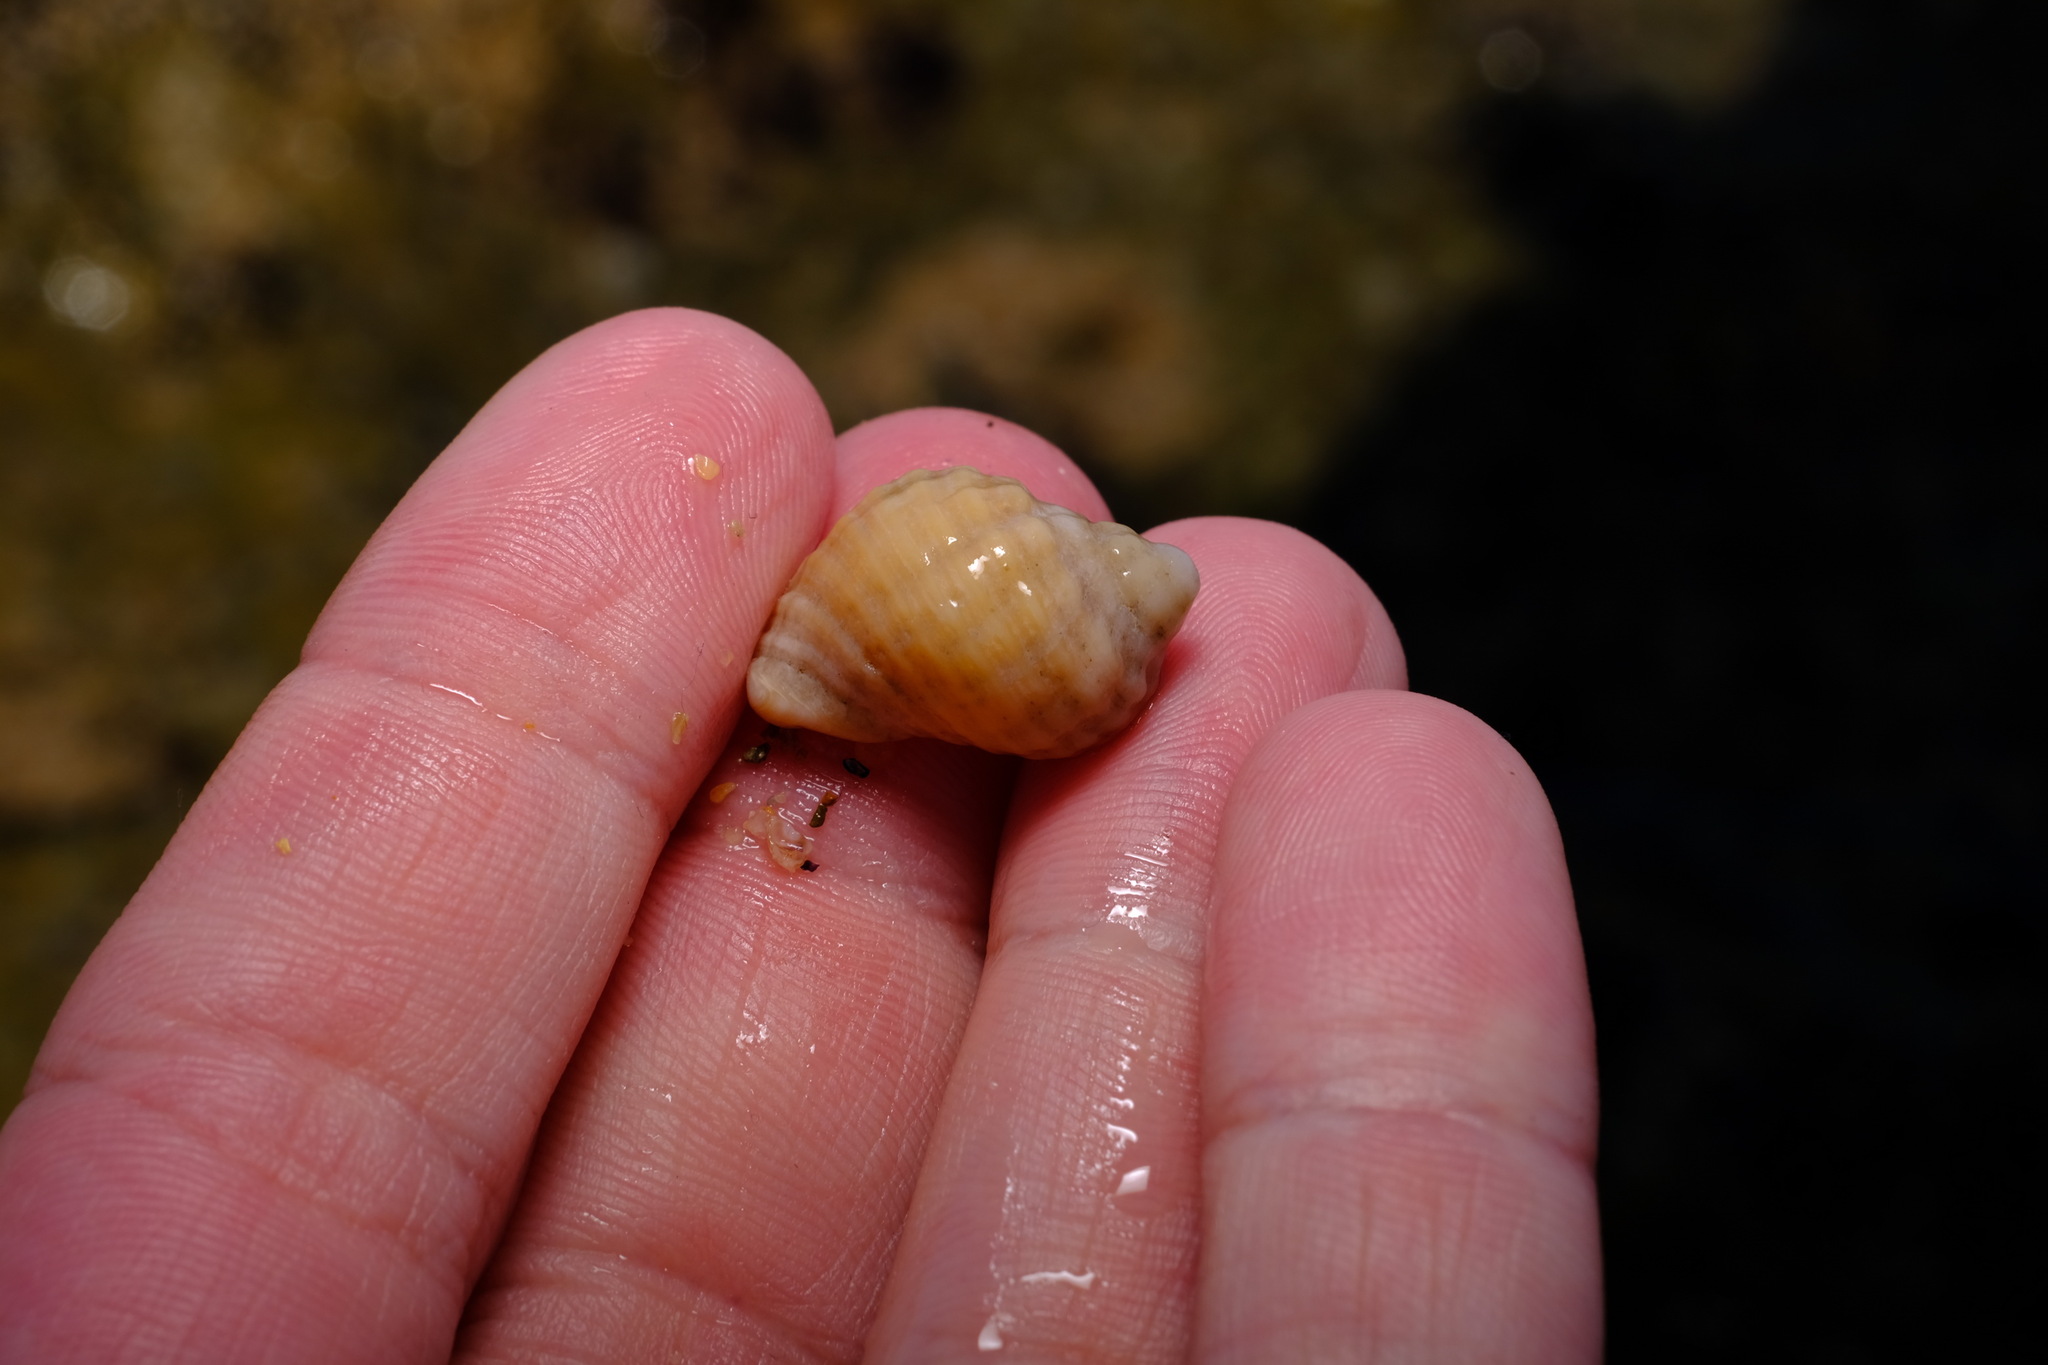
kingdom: Animalia
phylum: Mollusca
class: Gastropoda
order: Neogastropoda
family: Muricidae
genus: Dicathais
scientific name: Dicathais orbita
